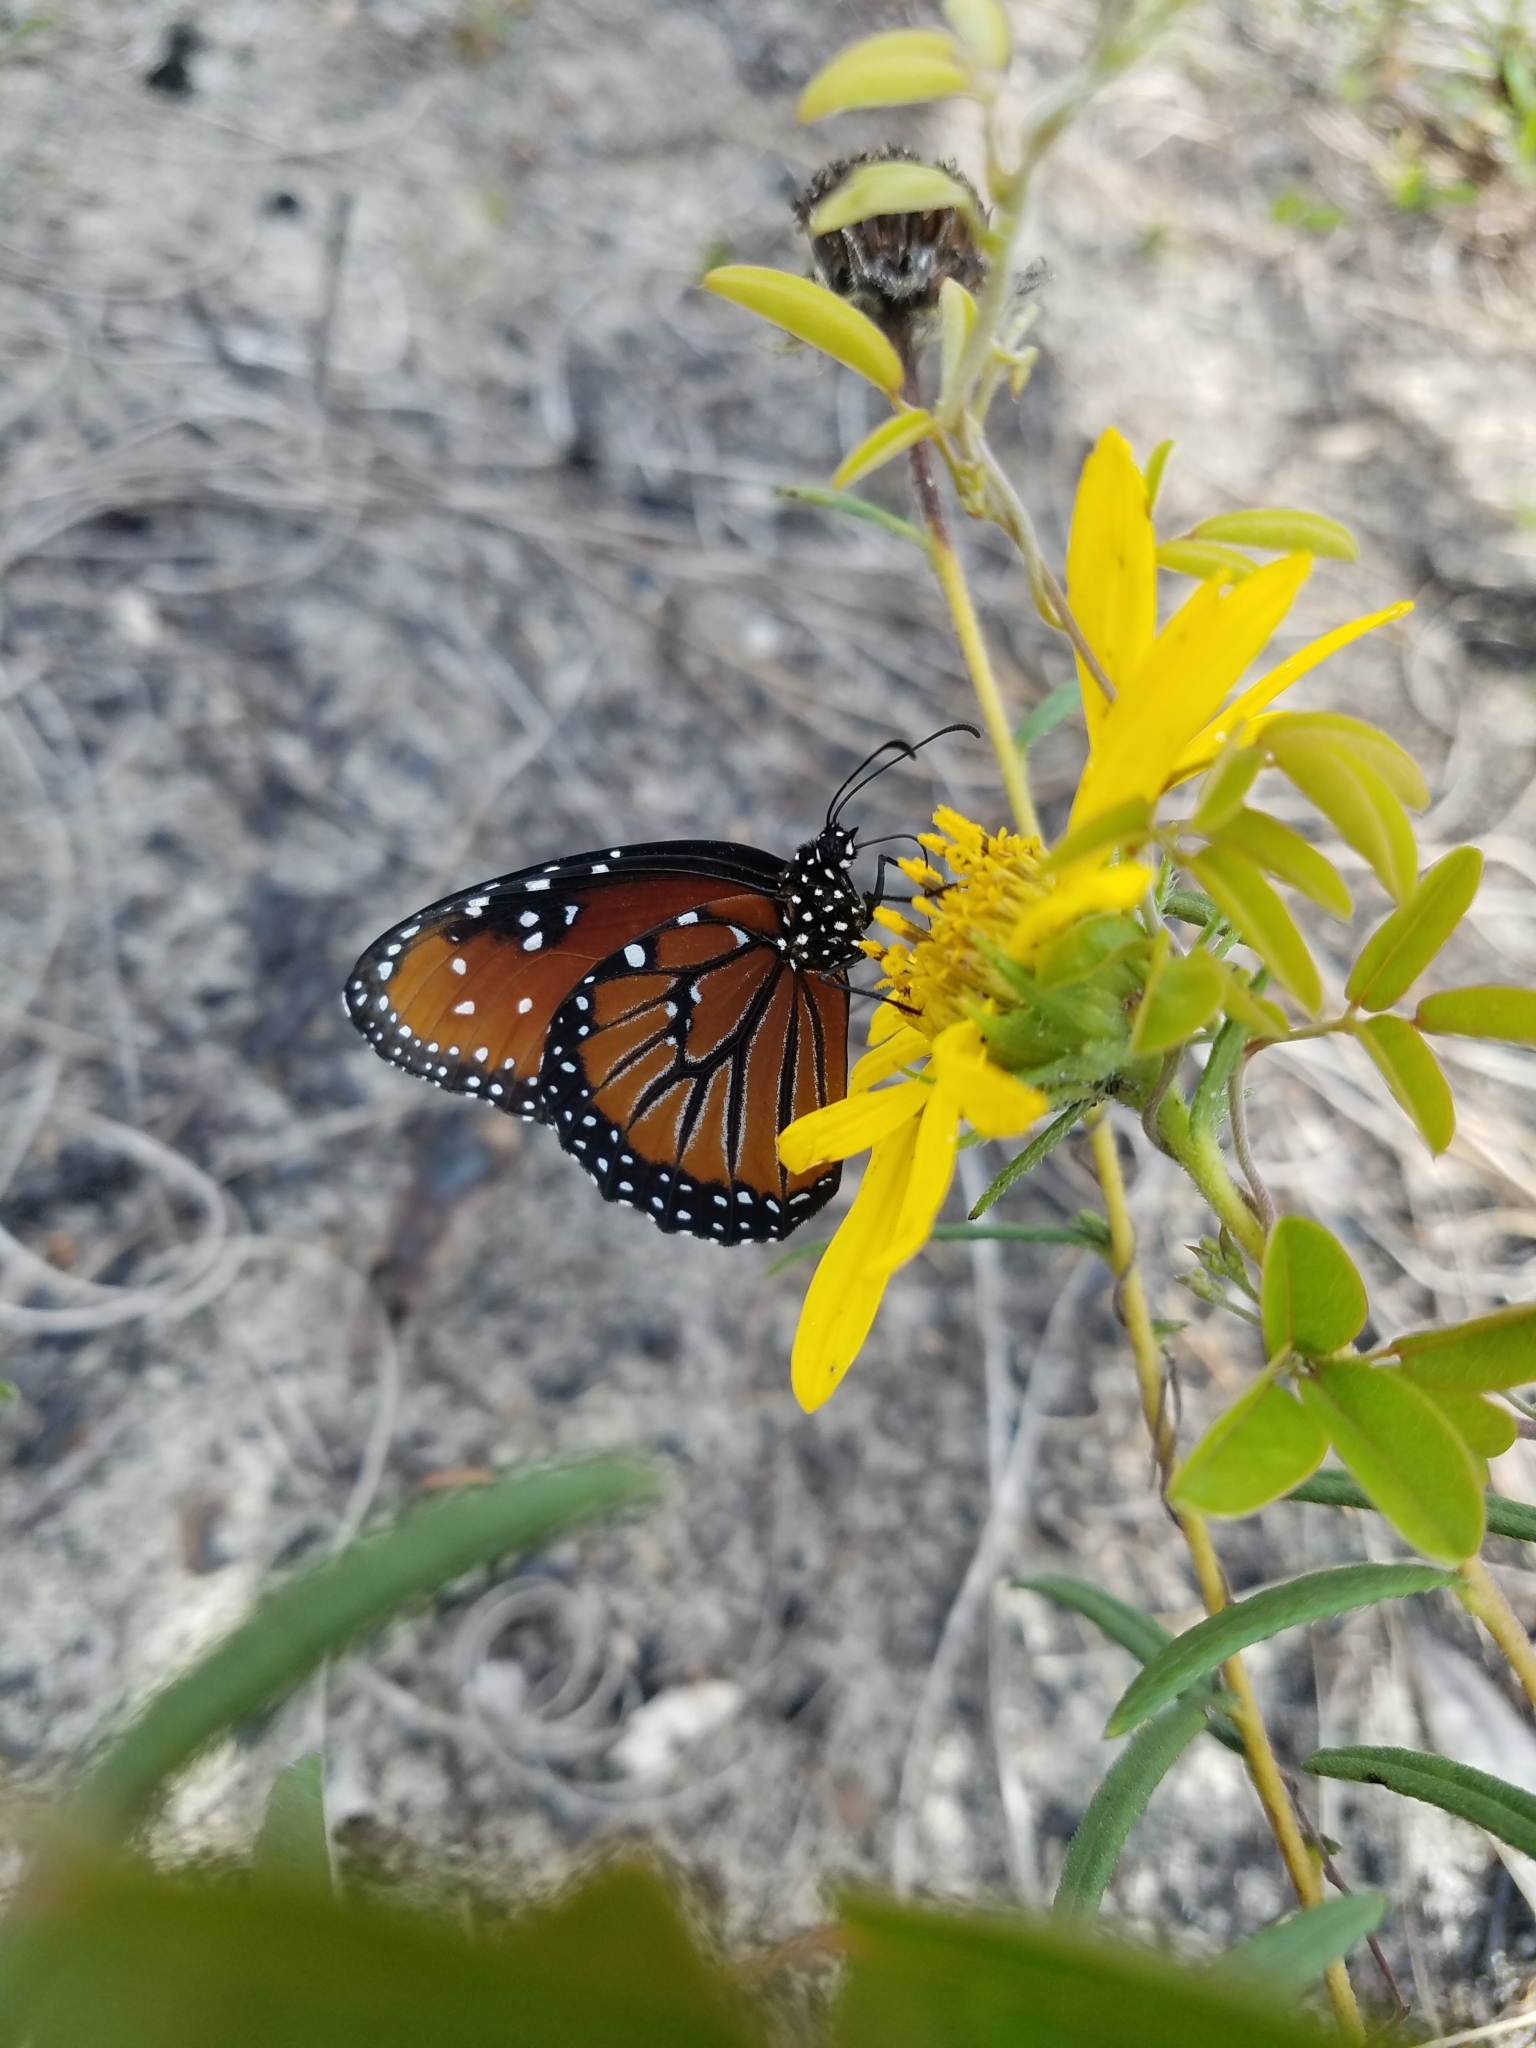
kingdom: Animalia
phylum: Arthropoda
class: Insecta
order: Lepidoptera
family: Nymphalidae
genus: Danaus
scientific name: Danaus gilippus
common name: Queen
